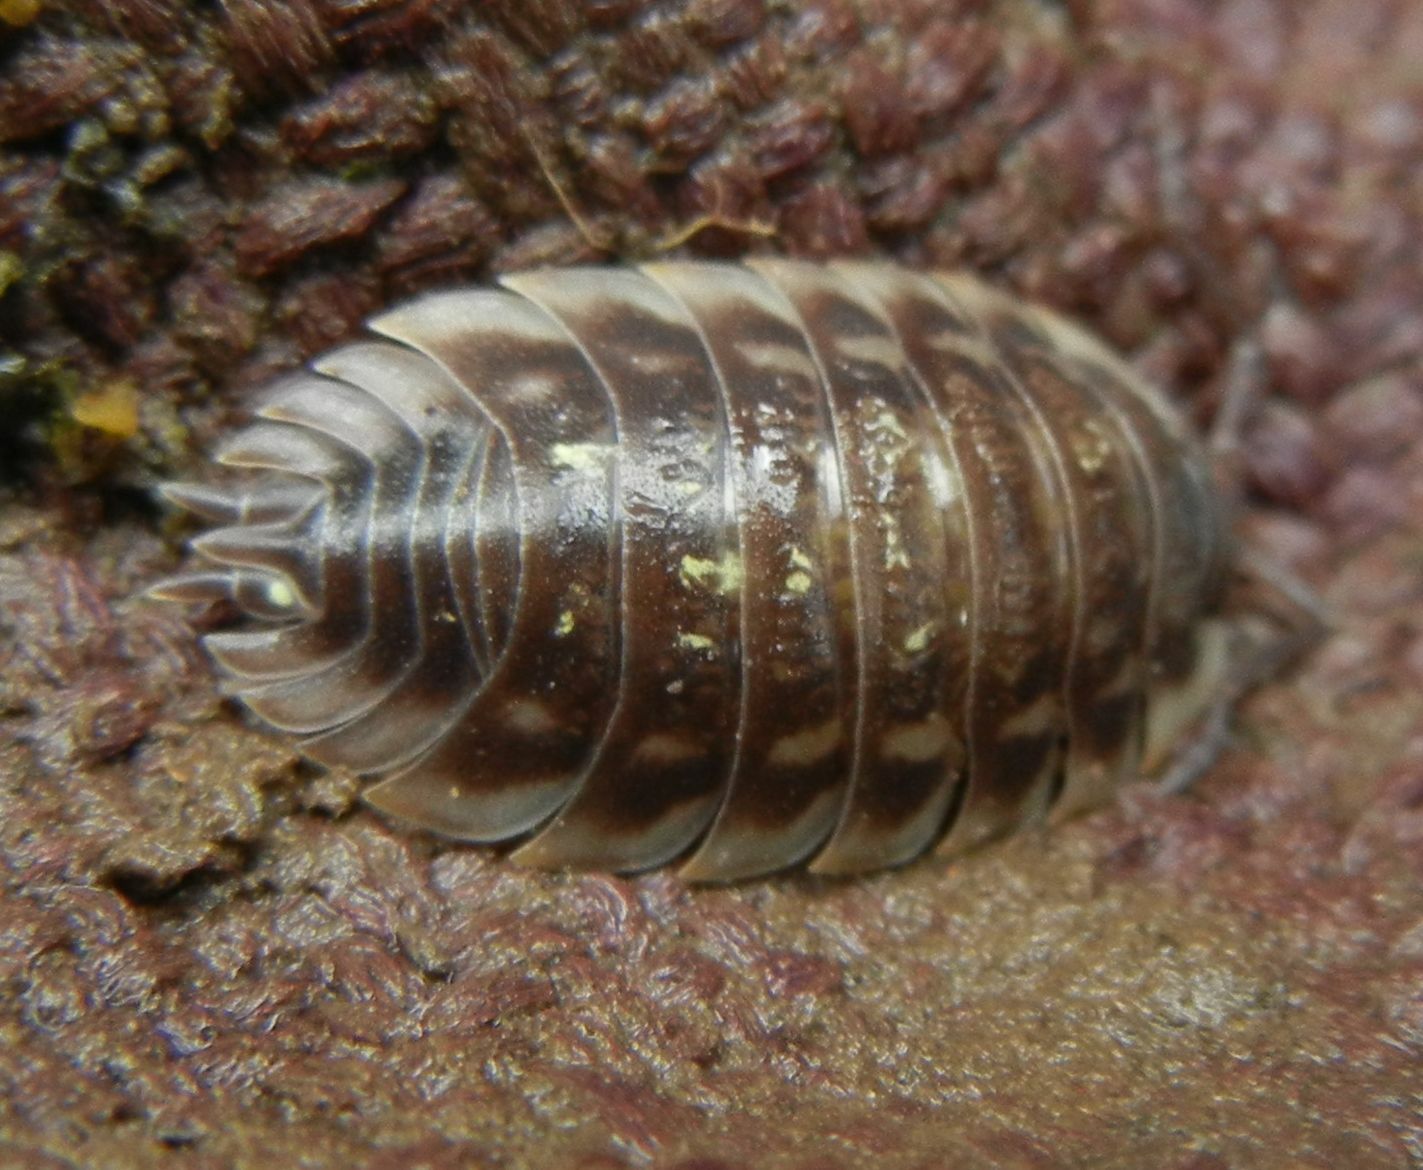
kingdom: Animalia
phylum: Arthropoda
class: Malacostraca
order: Isopoda
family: Oniscidae
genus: Oniscus
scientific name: Oniscus asellus
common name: Common shiny woodlouse
